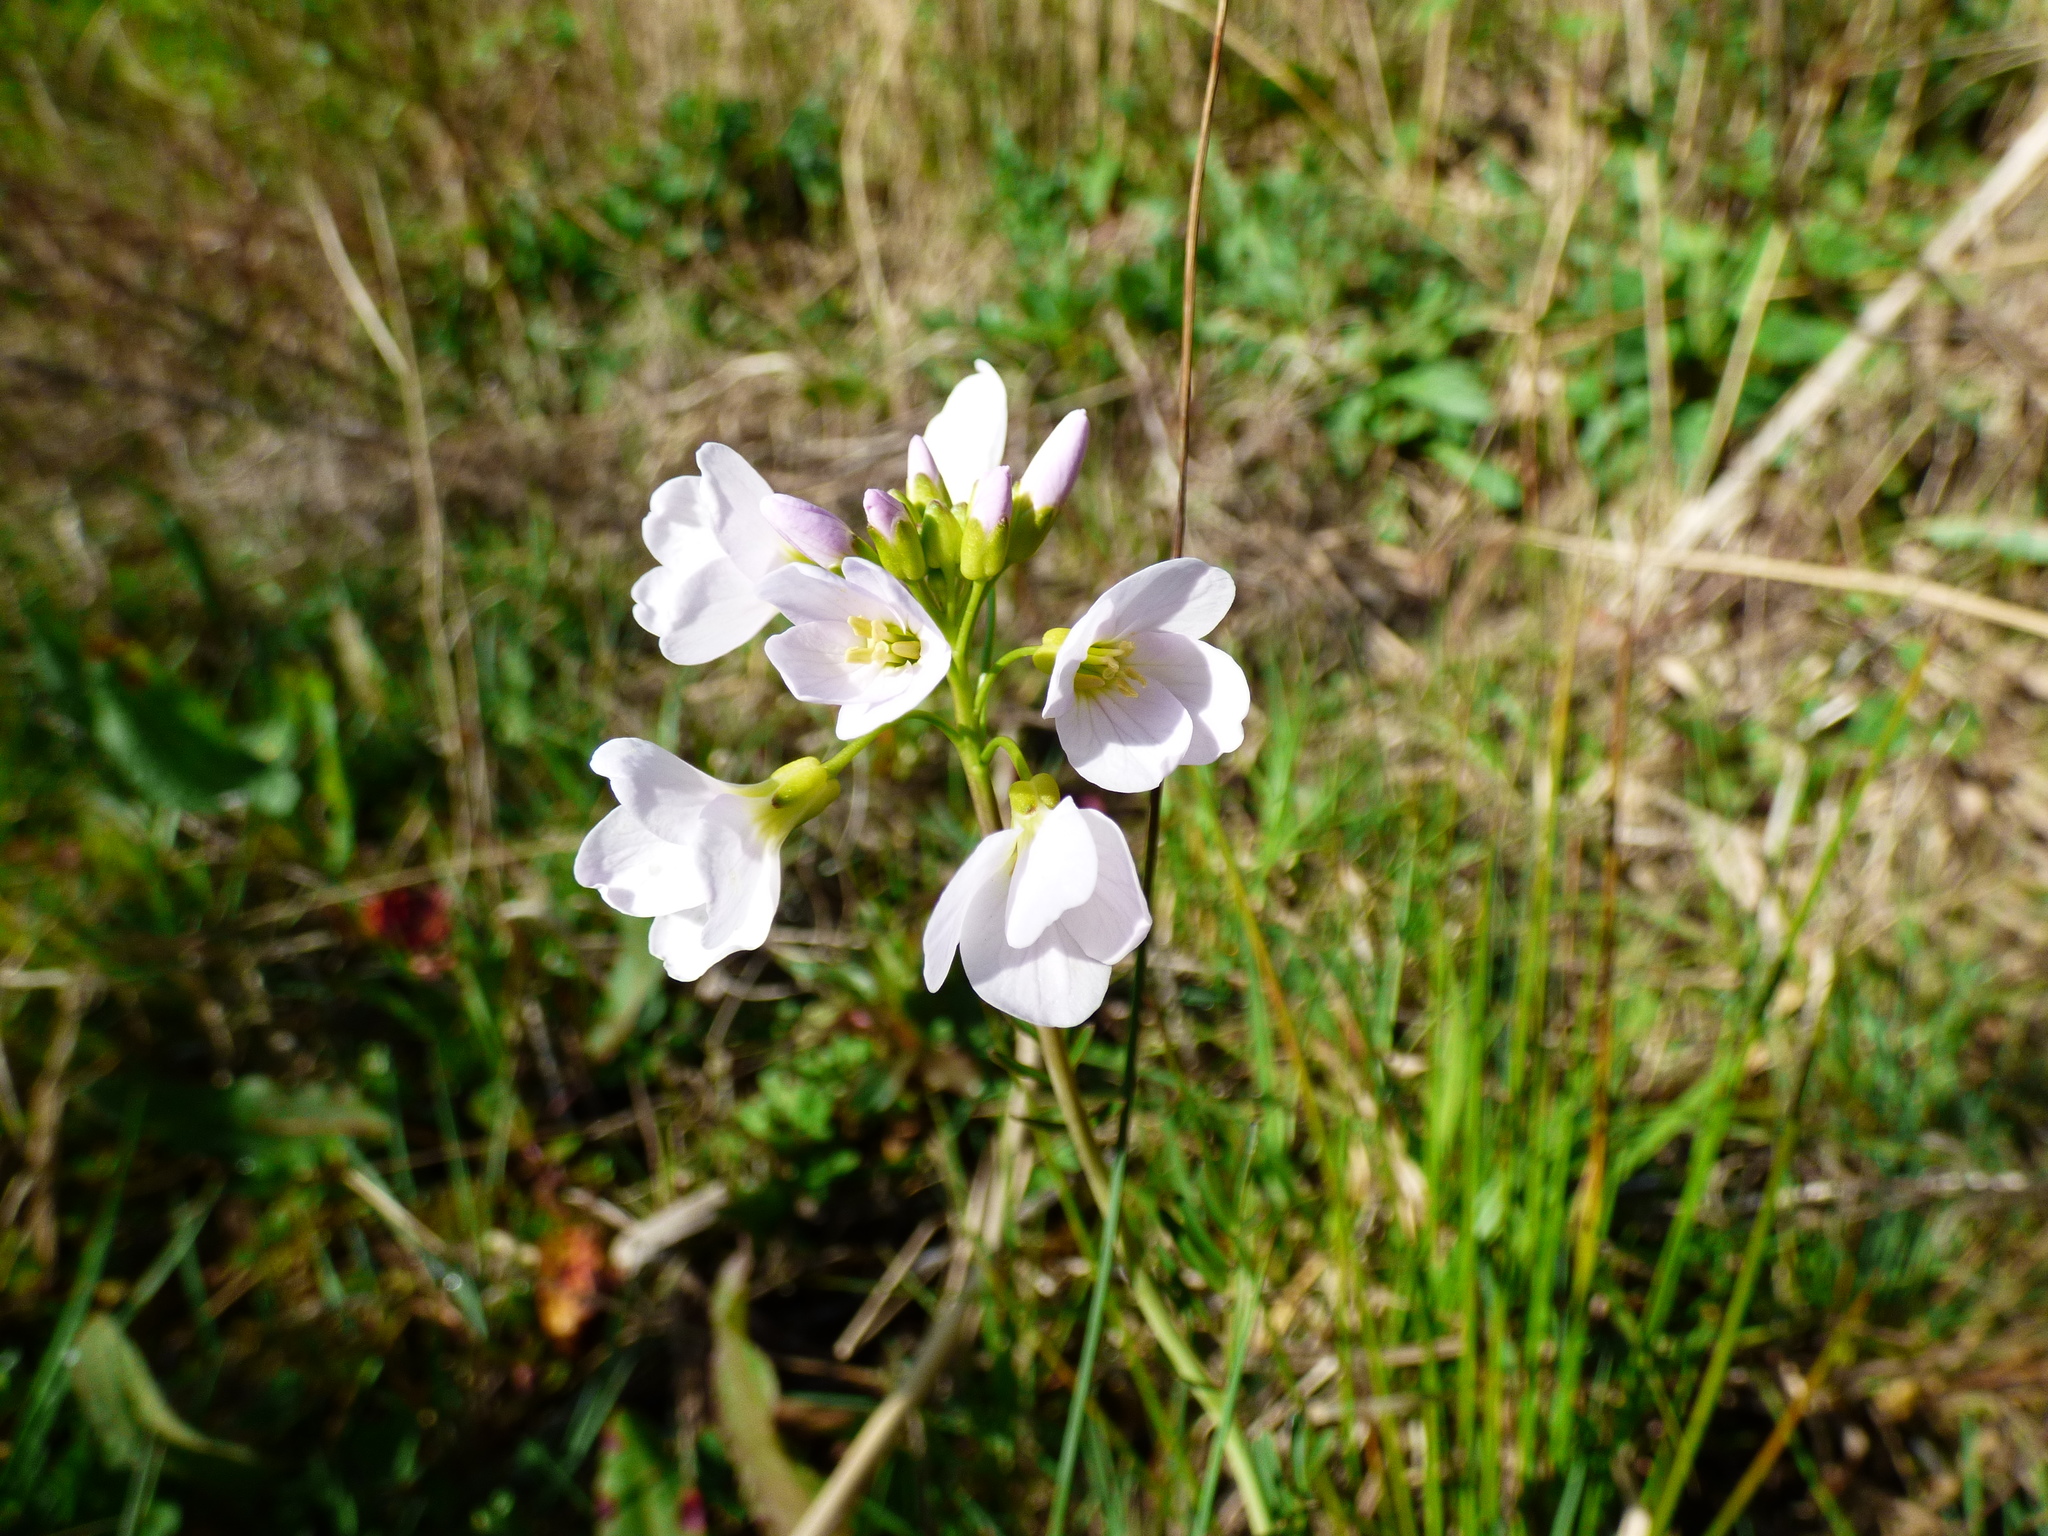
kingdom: Plantae
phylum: Tracheophyta
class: Magnoliopsida
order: Brassicales
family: Brassicaceae
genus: Cardamine
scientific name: Cardamine pratensis
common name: Cuckoo flower
